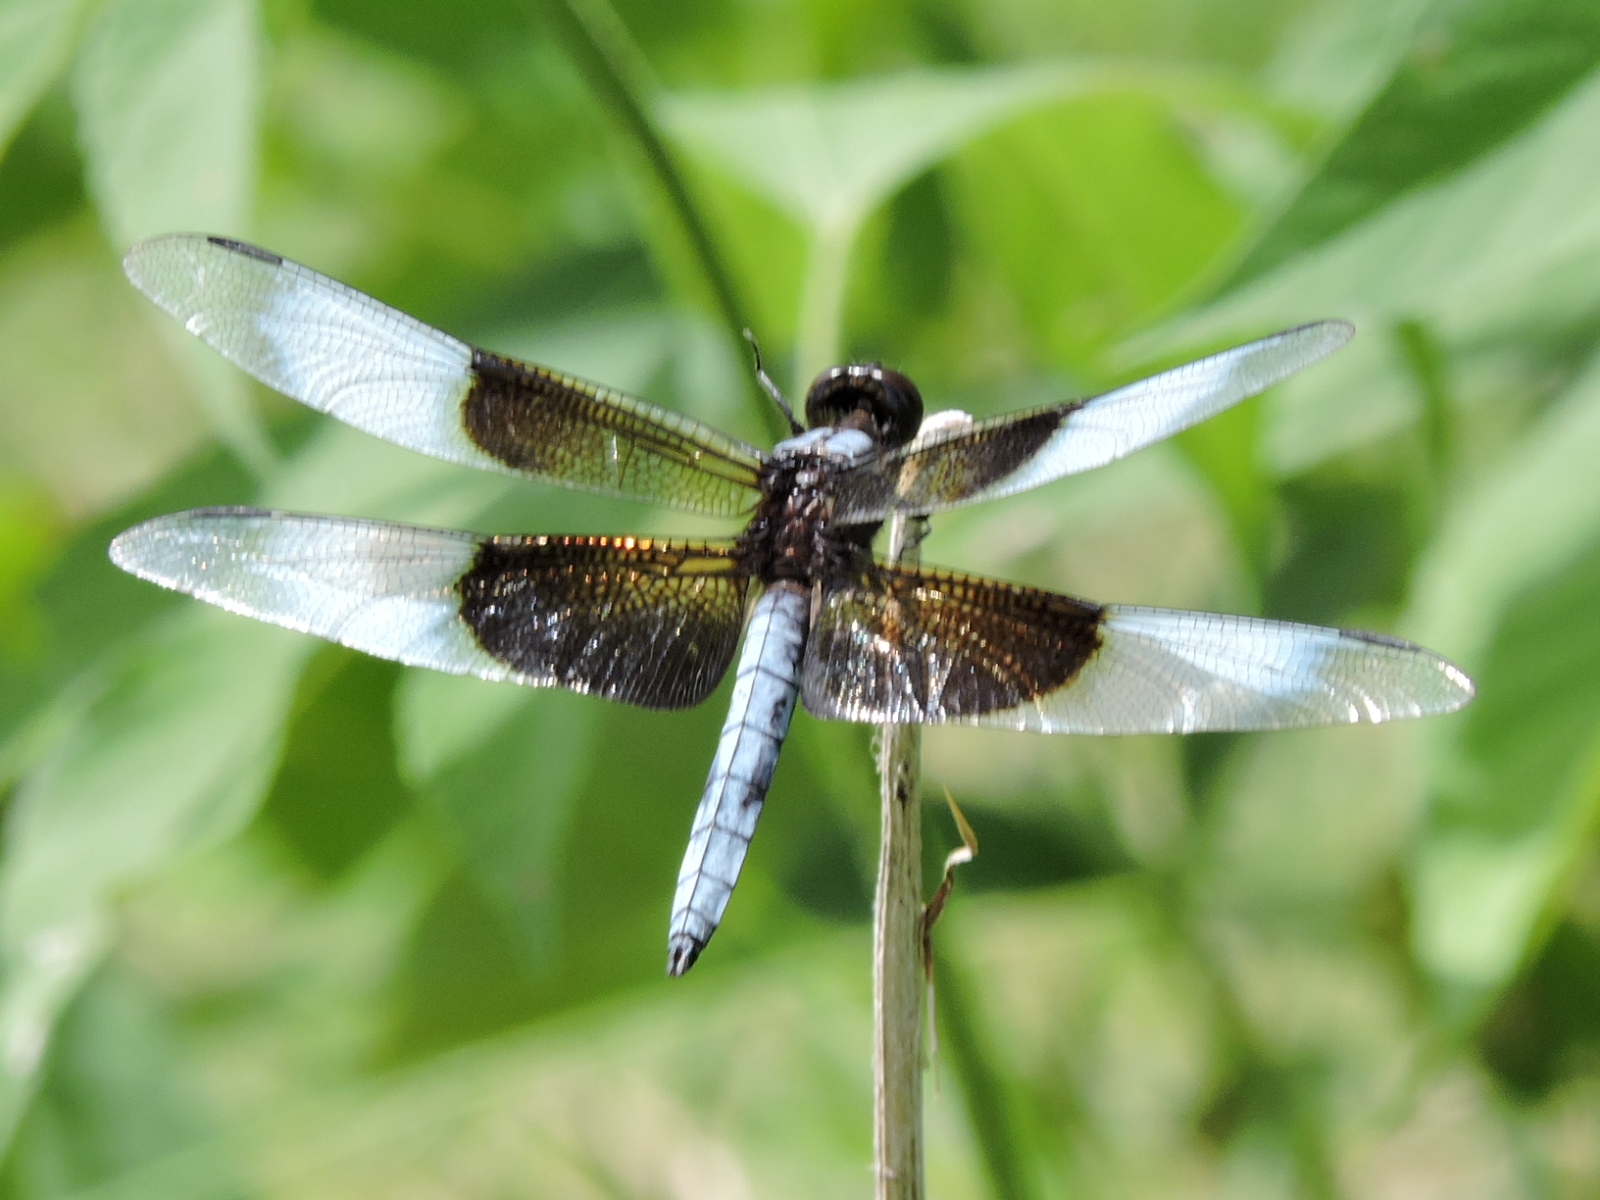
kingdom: Animalia
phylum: Arthropoda
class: Insecta
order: Odonata
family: Libellulidae
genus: Libellula
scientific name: Libellula luctuosa
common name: Widow skimmer
